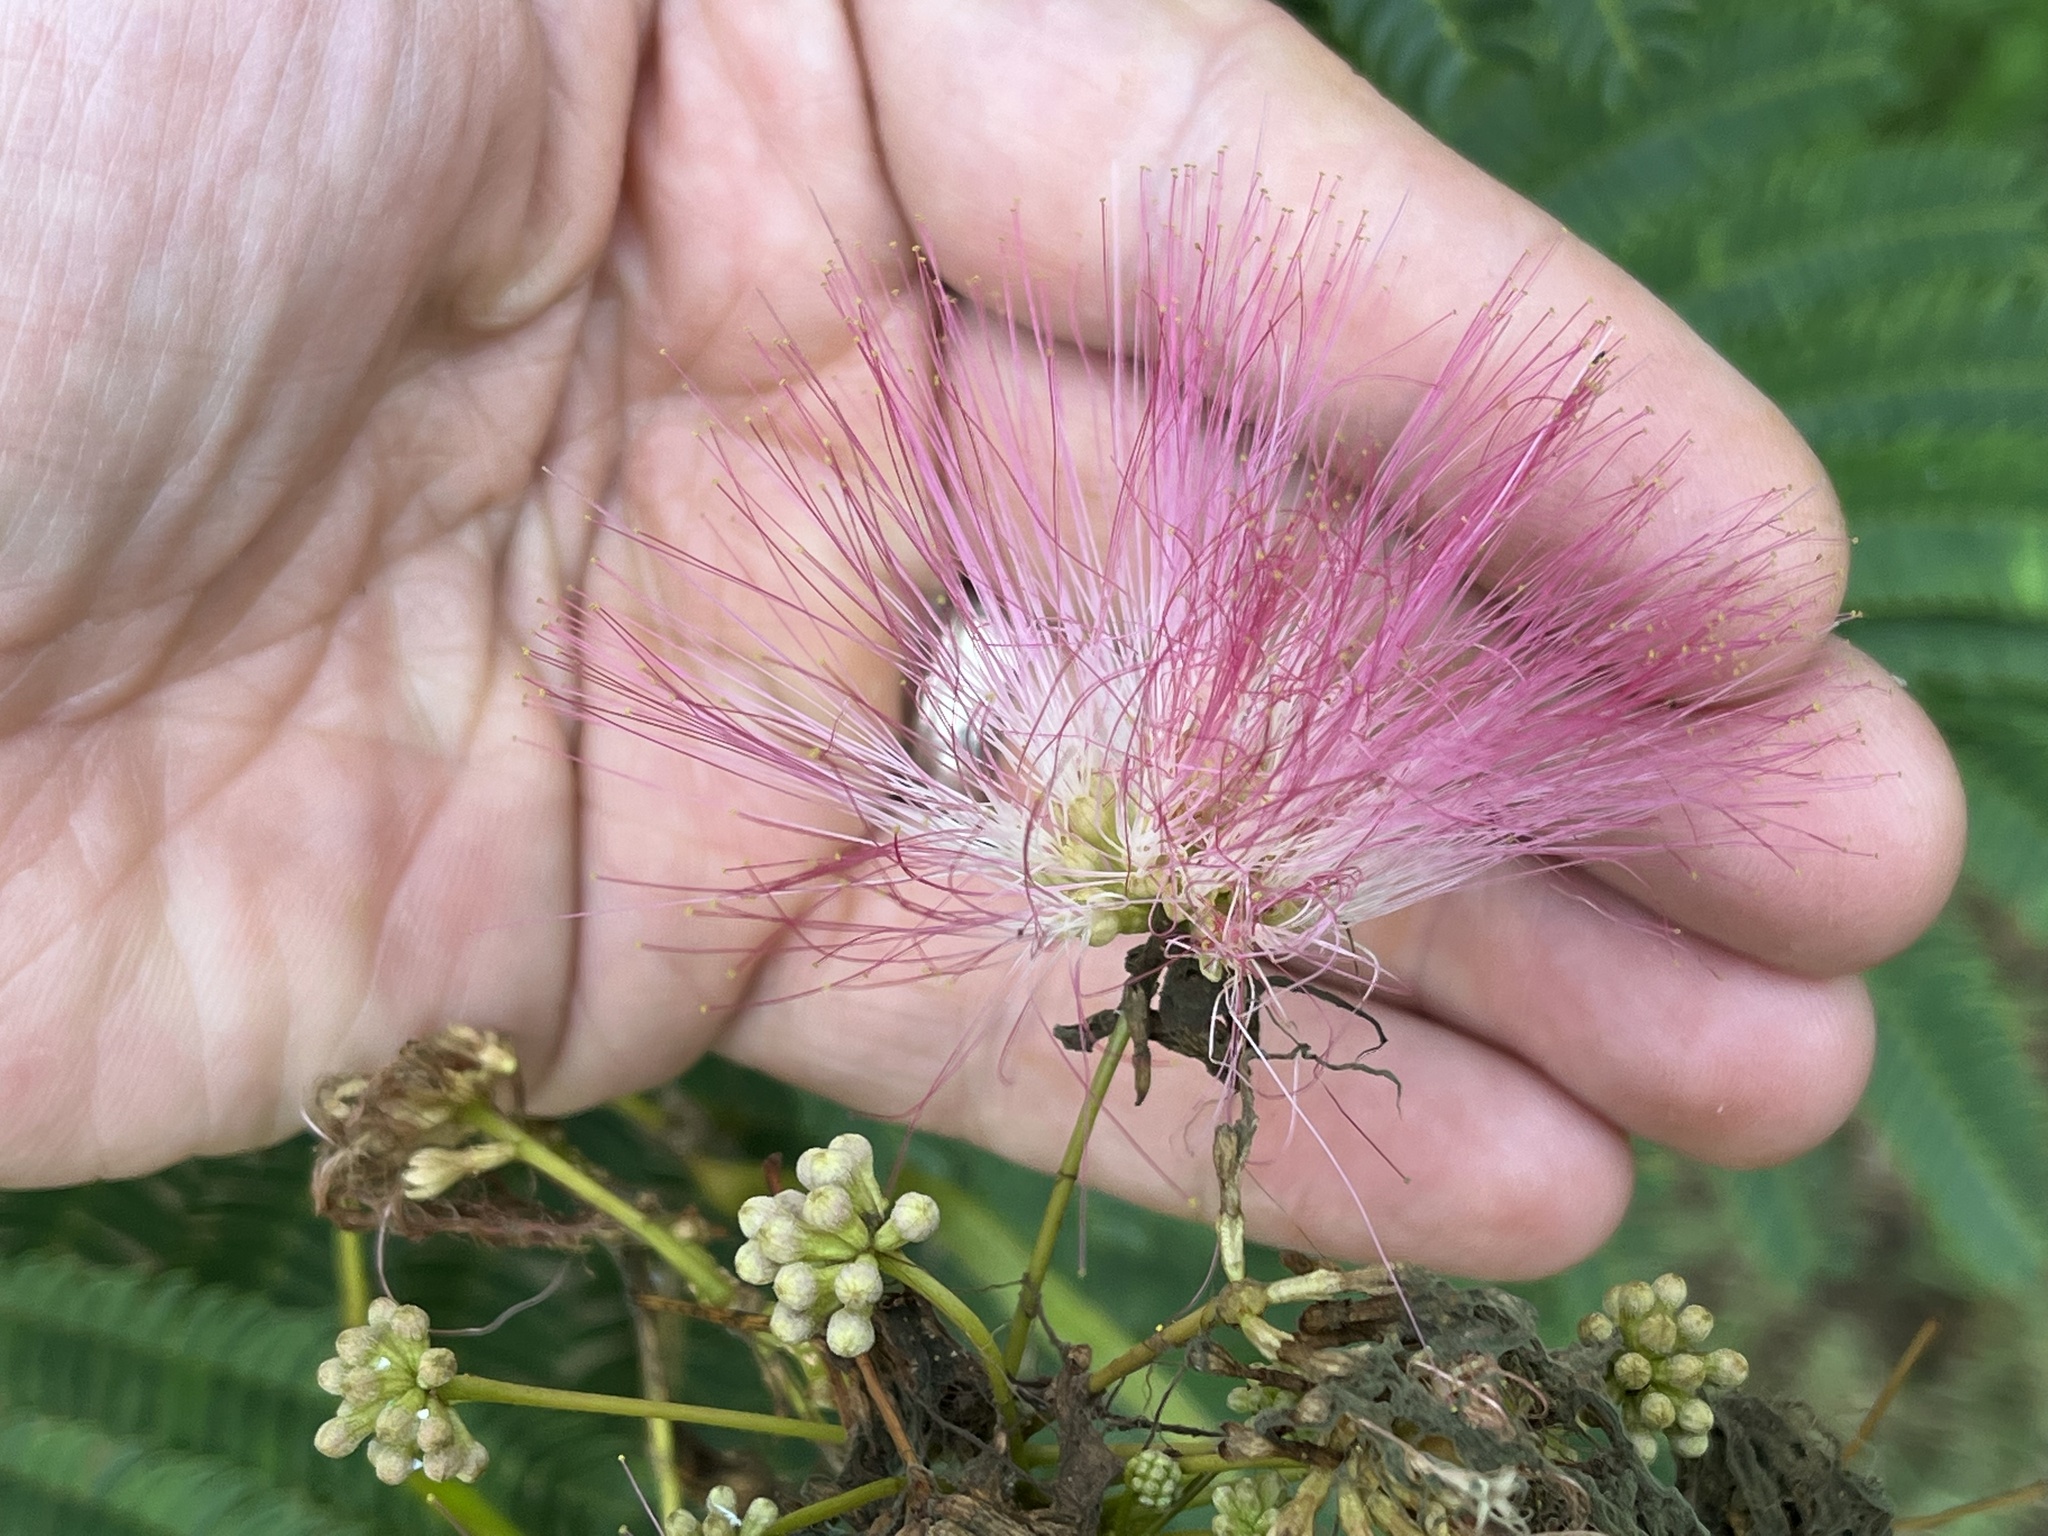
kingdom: Plantae
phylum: Tracheophyta
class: Magnoliopsida
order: Fabales
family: Fabaceae
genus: Albizia
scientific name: Albizia julibrissin
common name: Silktree
